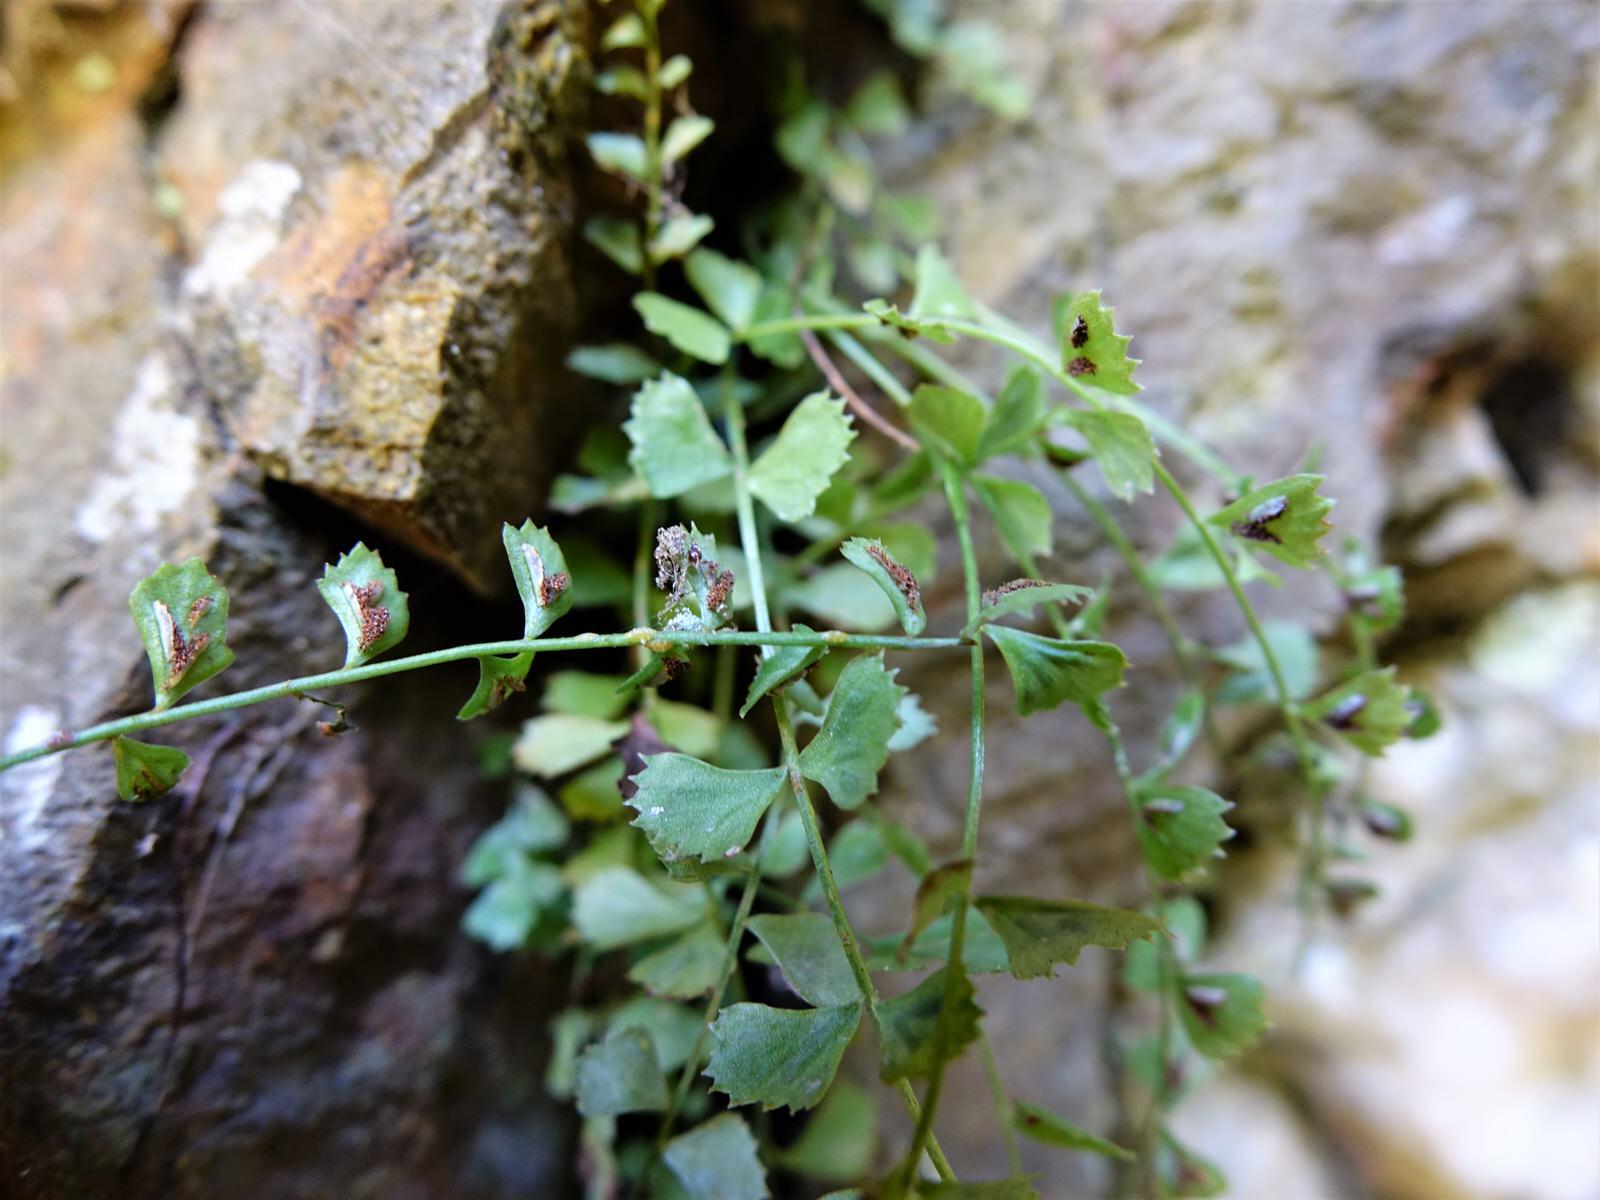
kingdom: Plantae
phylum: Tracheophyta
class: Polypodiopsida
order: Polypodiales
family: Aspleniaceae
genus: Asplenium
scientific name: Asplenium flabellifolium
